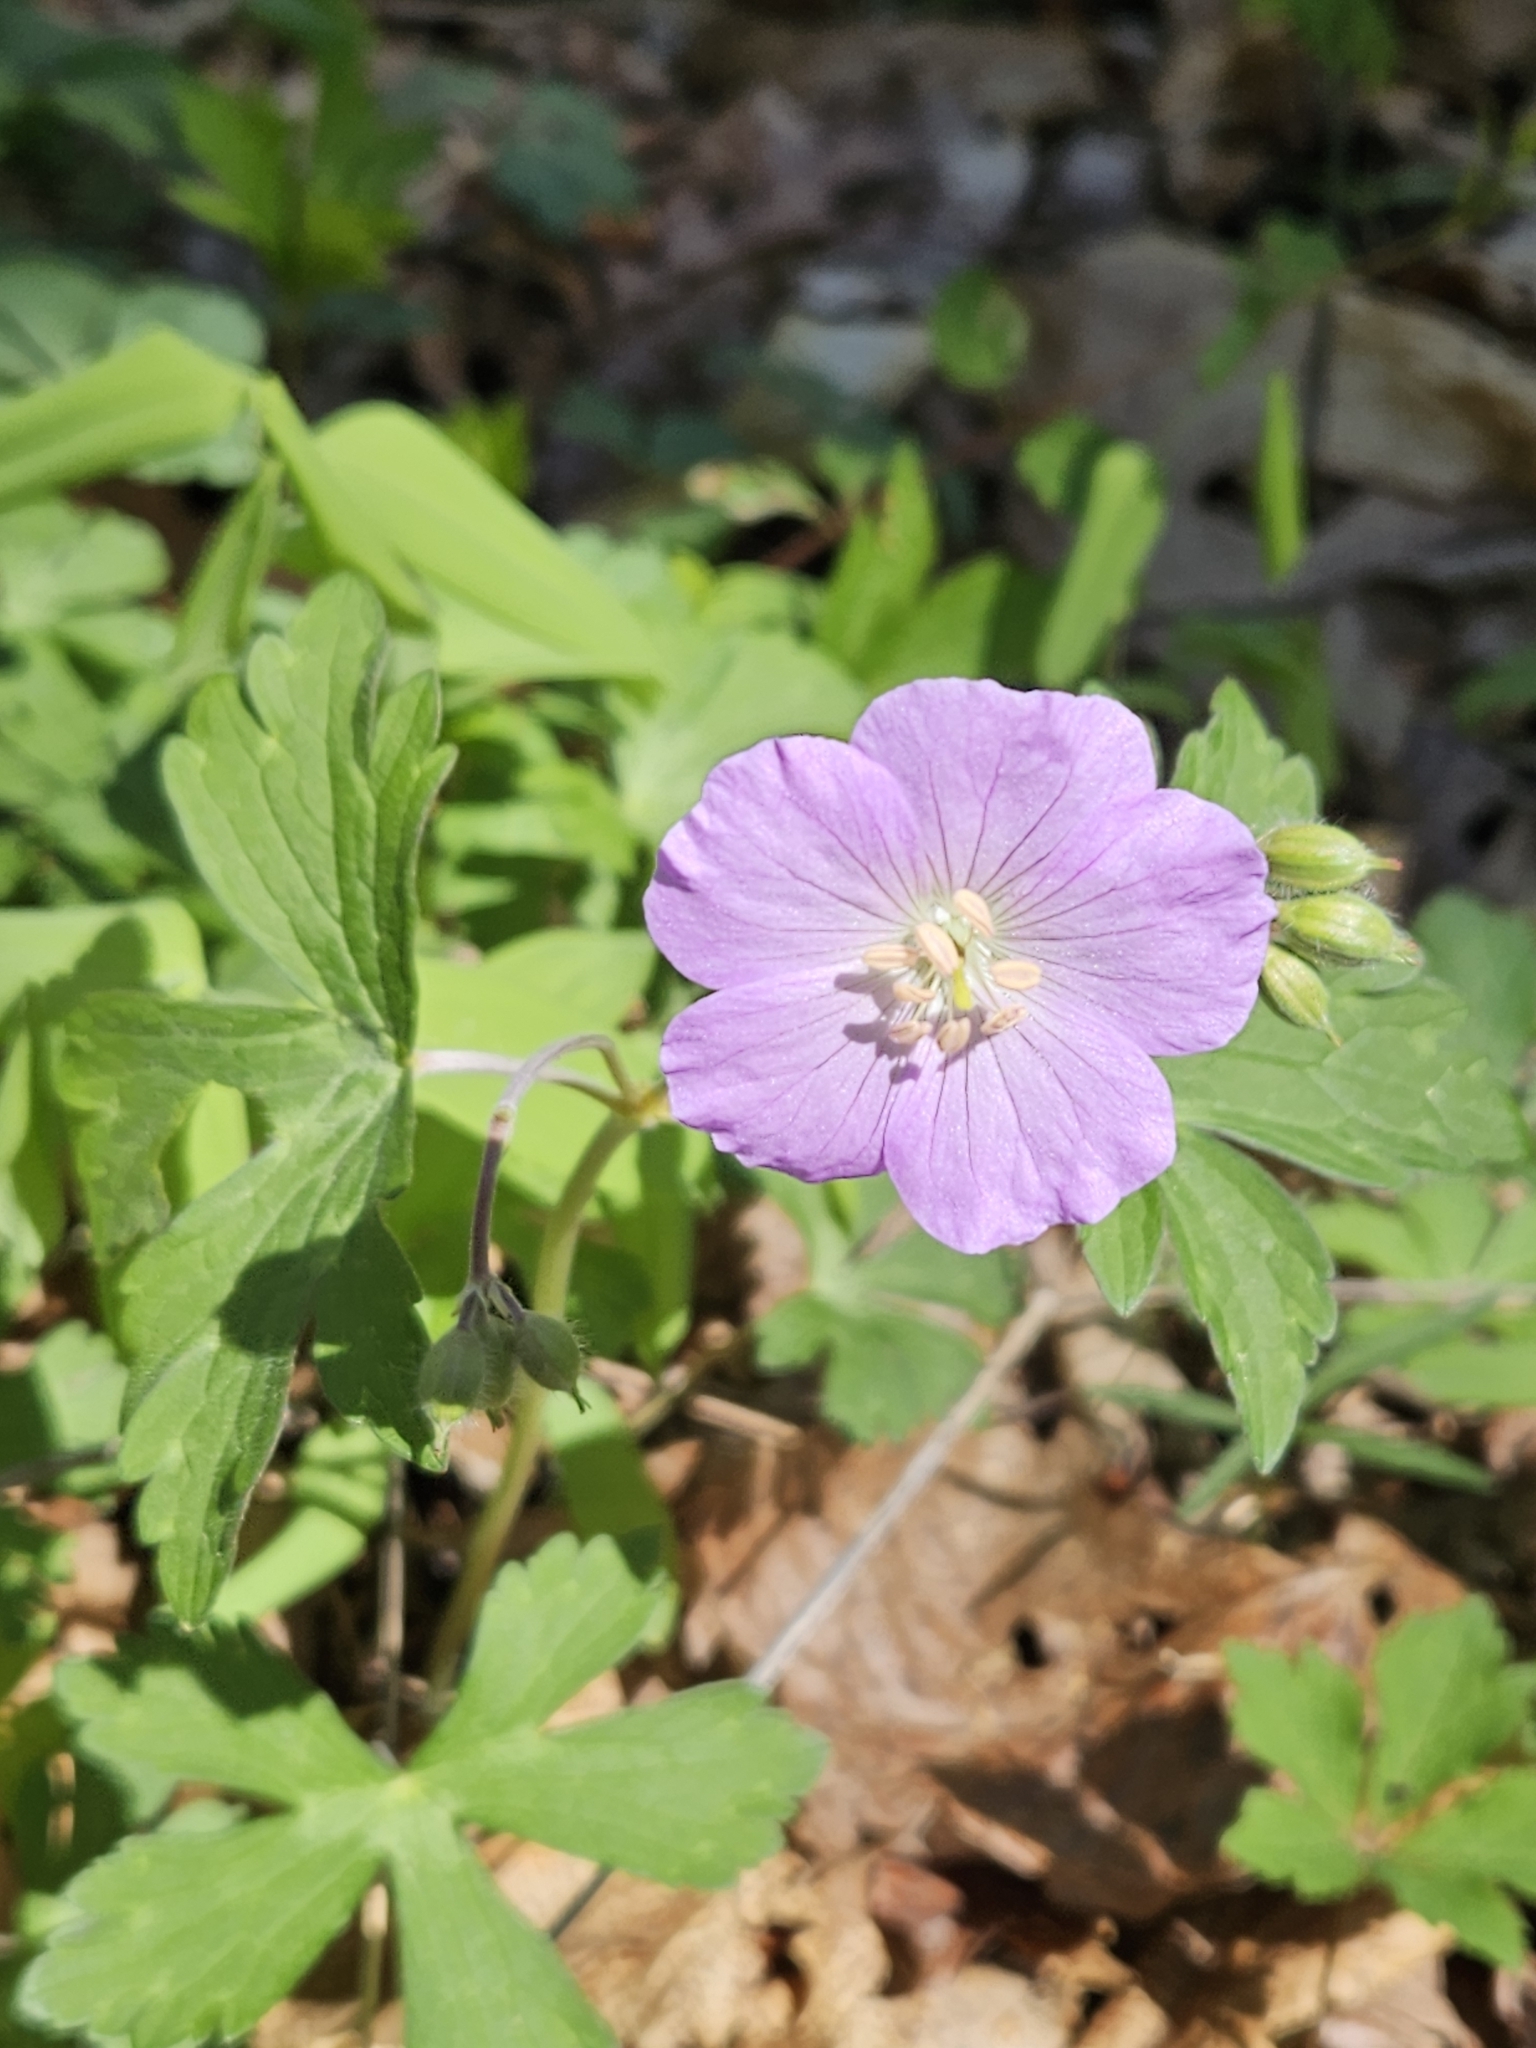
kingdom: Plantae
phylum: Tracheophyta
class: Magnoliopsida
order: Geraniales
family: Geraniaceae
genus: Geranium
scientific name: Geranium maculatum
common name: Spotted geranium
